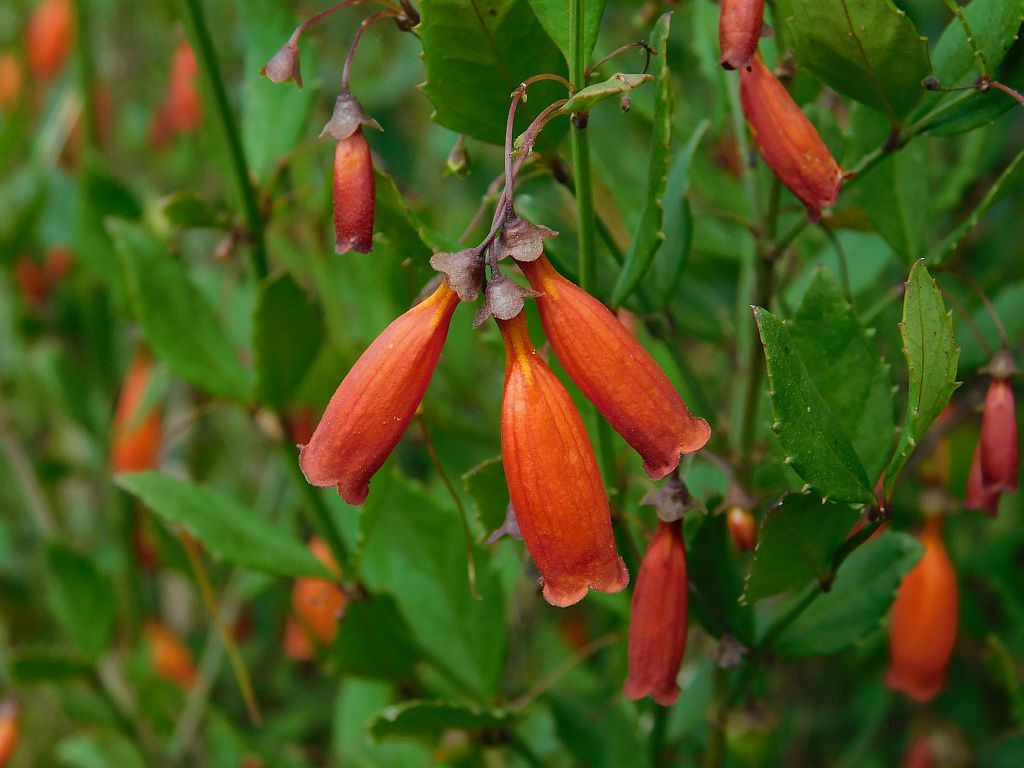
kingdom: Plantae
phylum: Tracheophyta
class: Magnoliopsida
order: Lamiales
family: Stilbaceae
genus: Halleria
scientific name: Halleria elliptica
